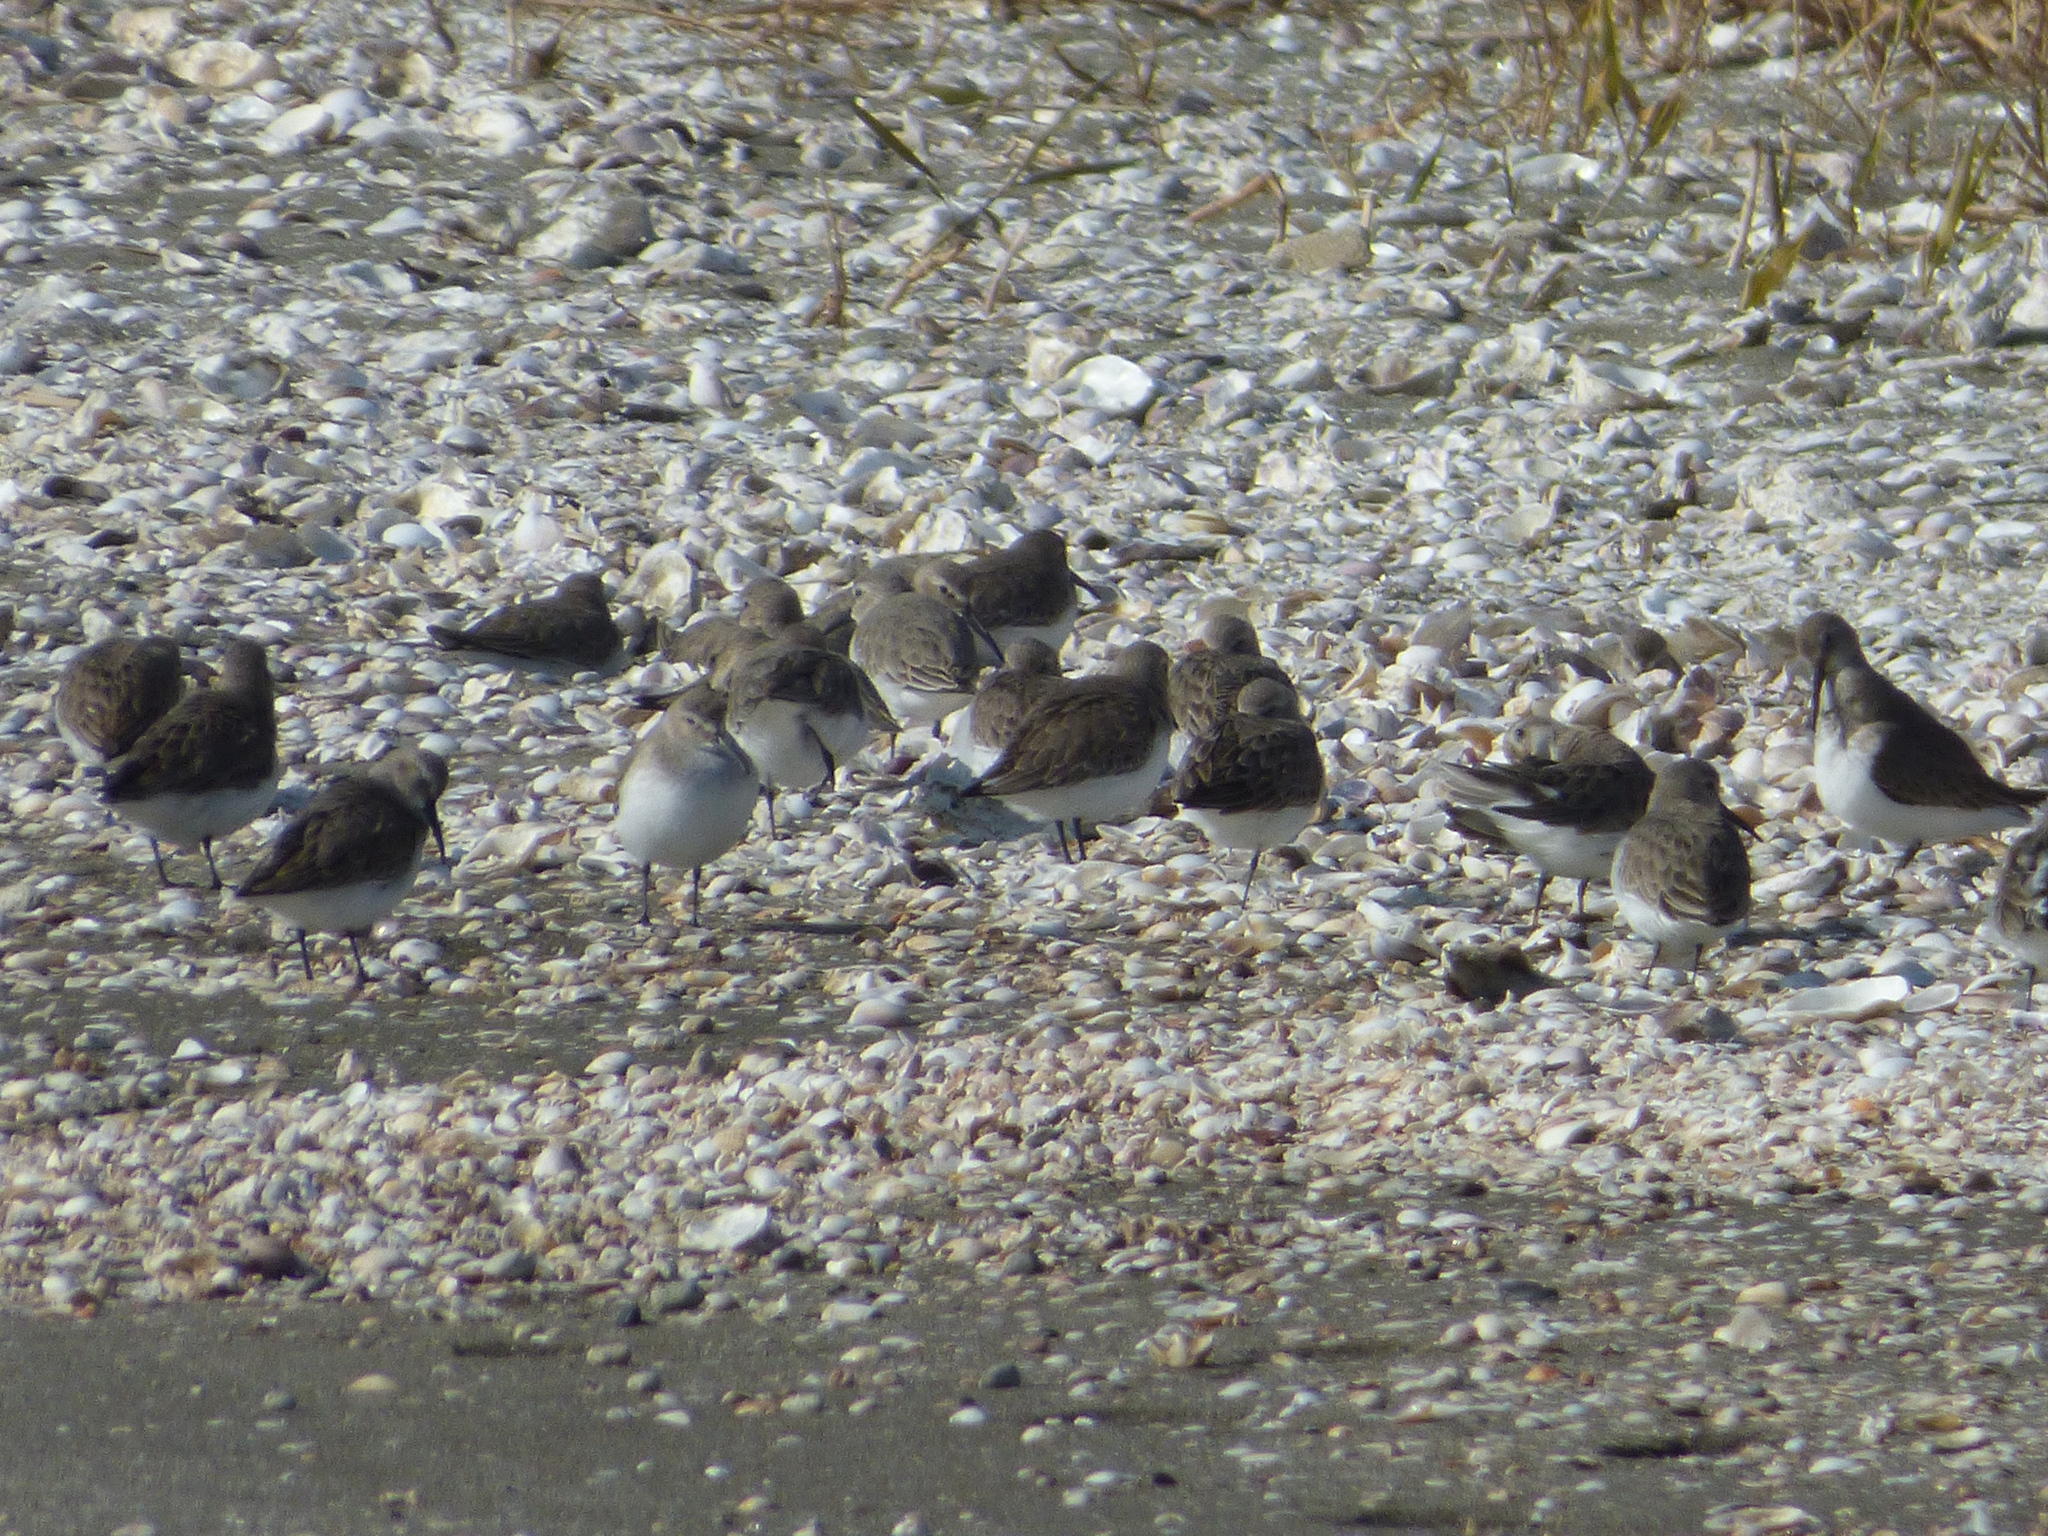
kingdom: Animalia
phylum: Chordata
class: Aves
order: Charadriiformes
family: Scolopacidae
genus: Calidris
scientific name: Calidris alpina
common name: Dunlin
